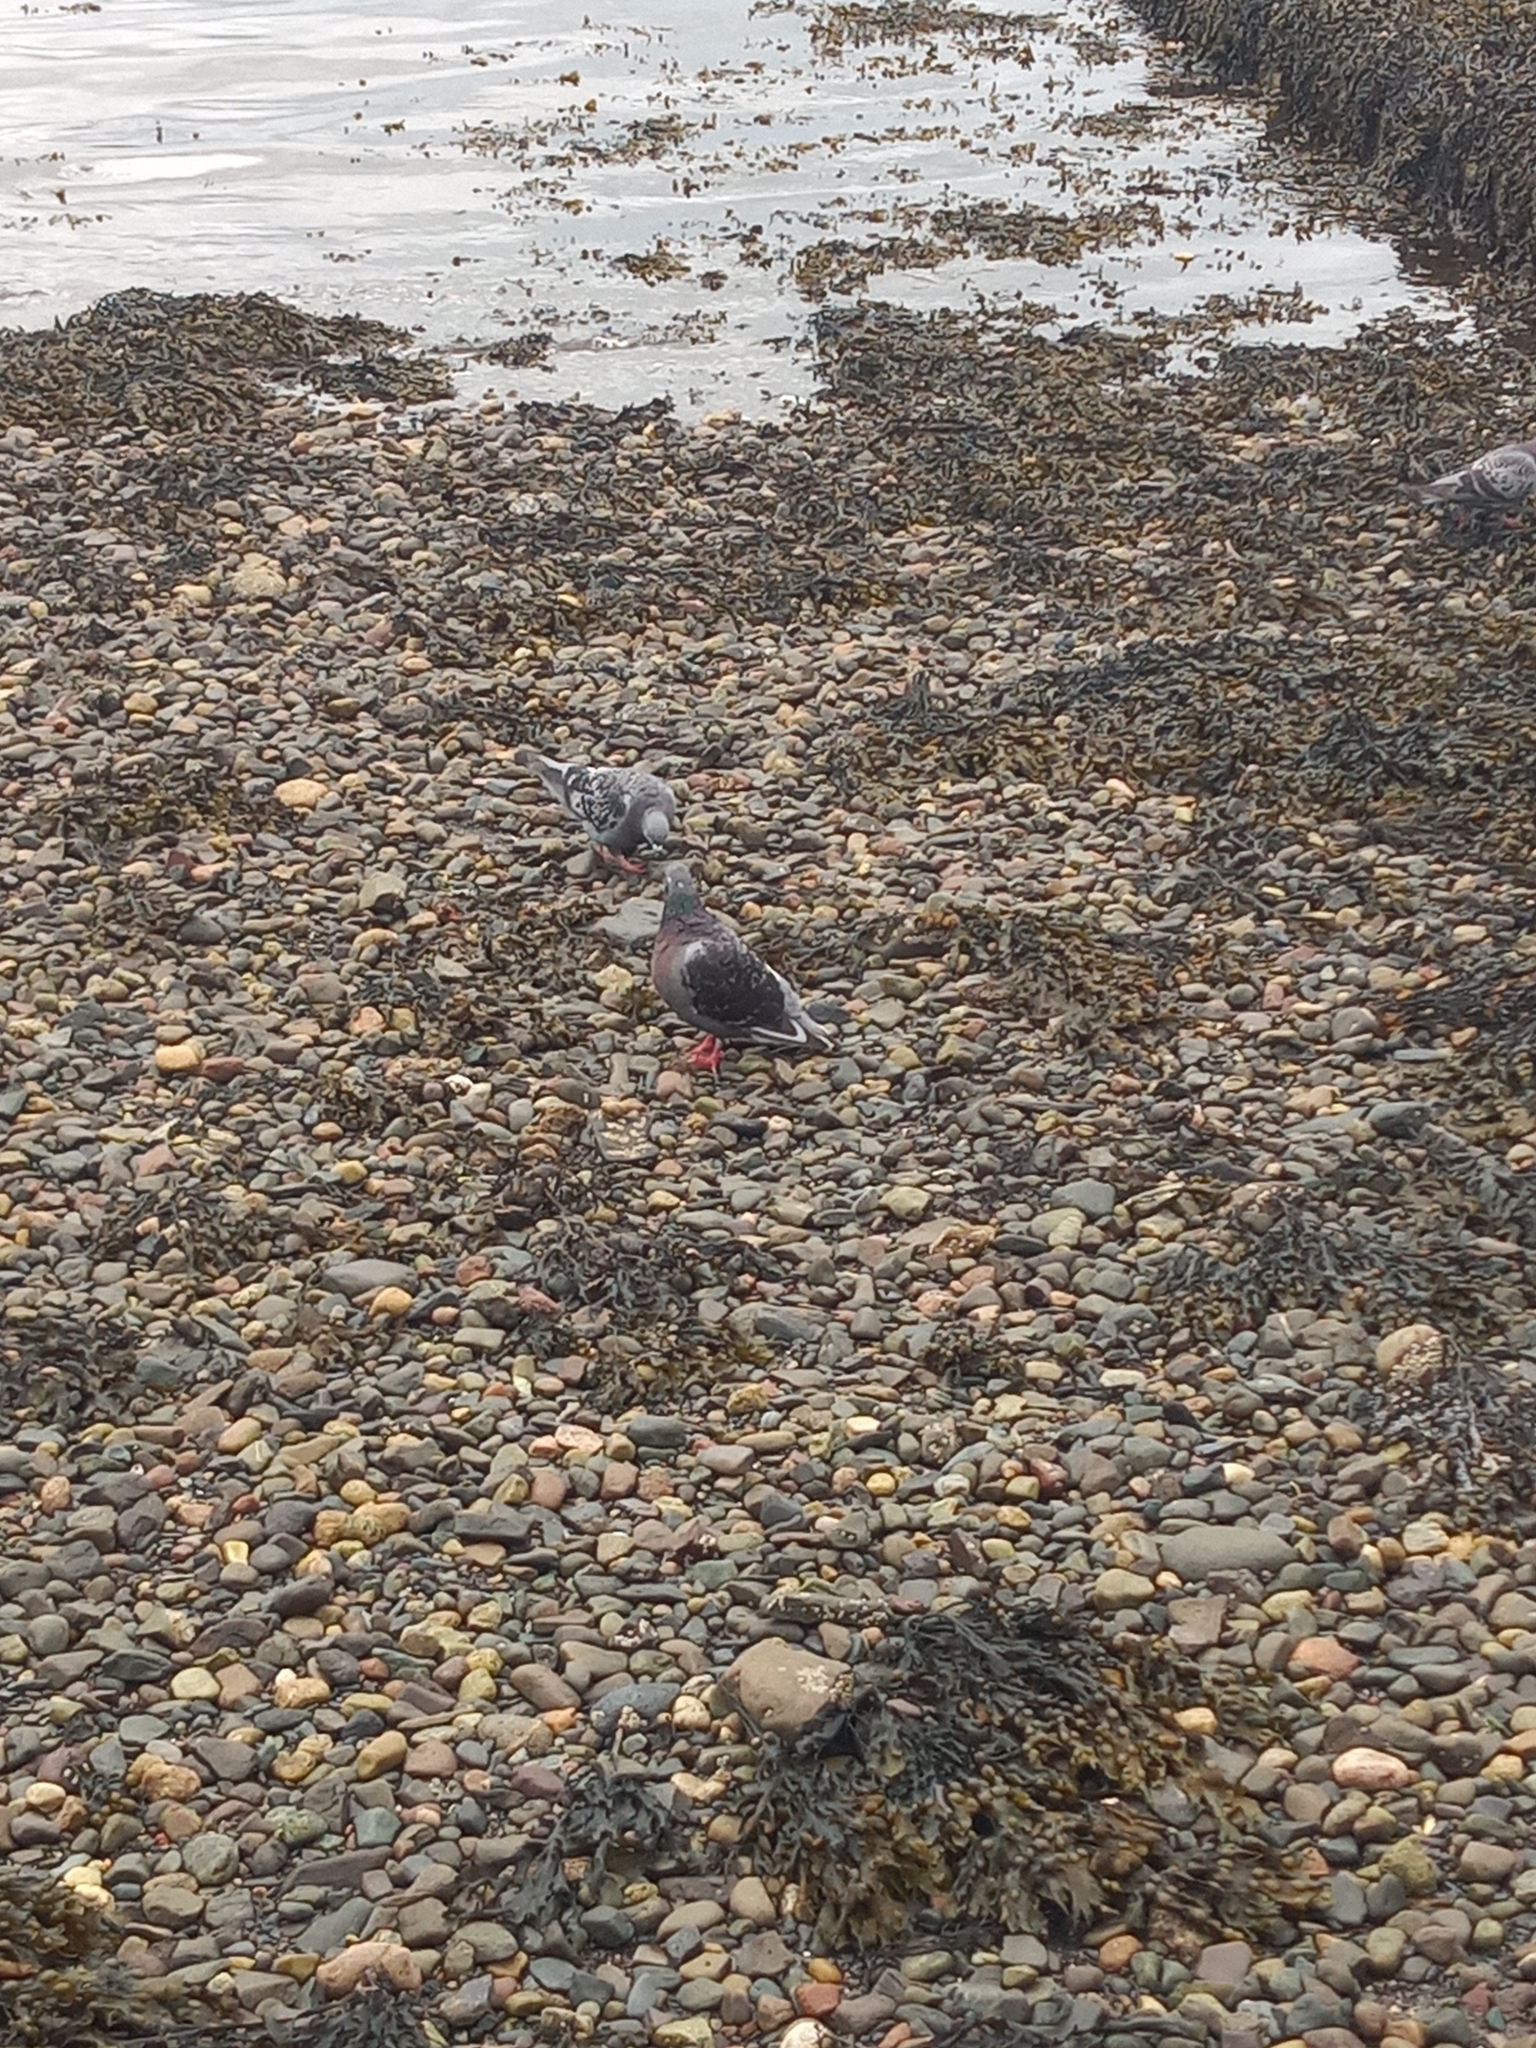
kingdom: Animalia
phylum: Chordata
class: Aves
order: Columbiformes
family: Columbidae
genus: Columba
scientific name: Columba livia
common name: Rock pigeon
